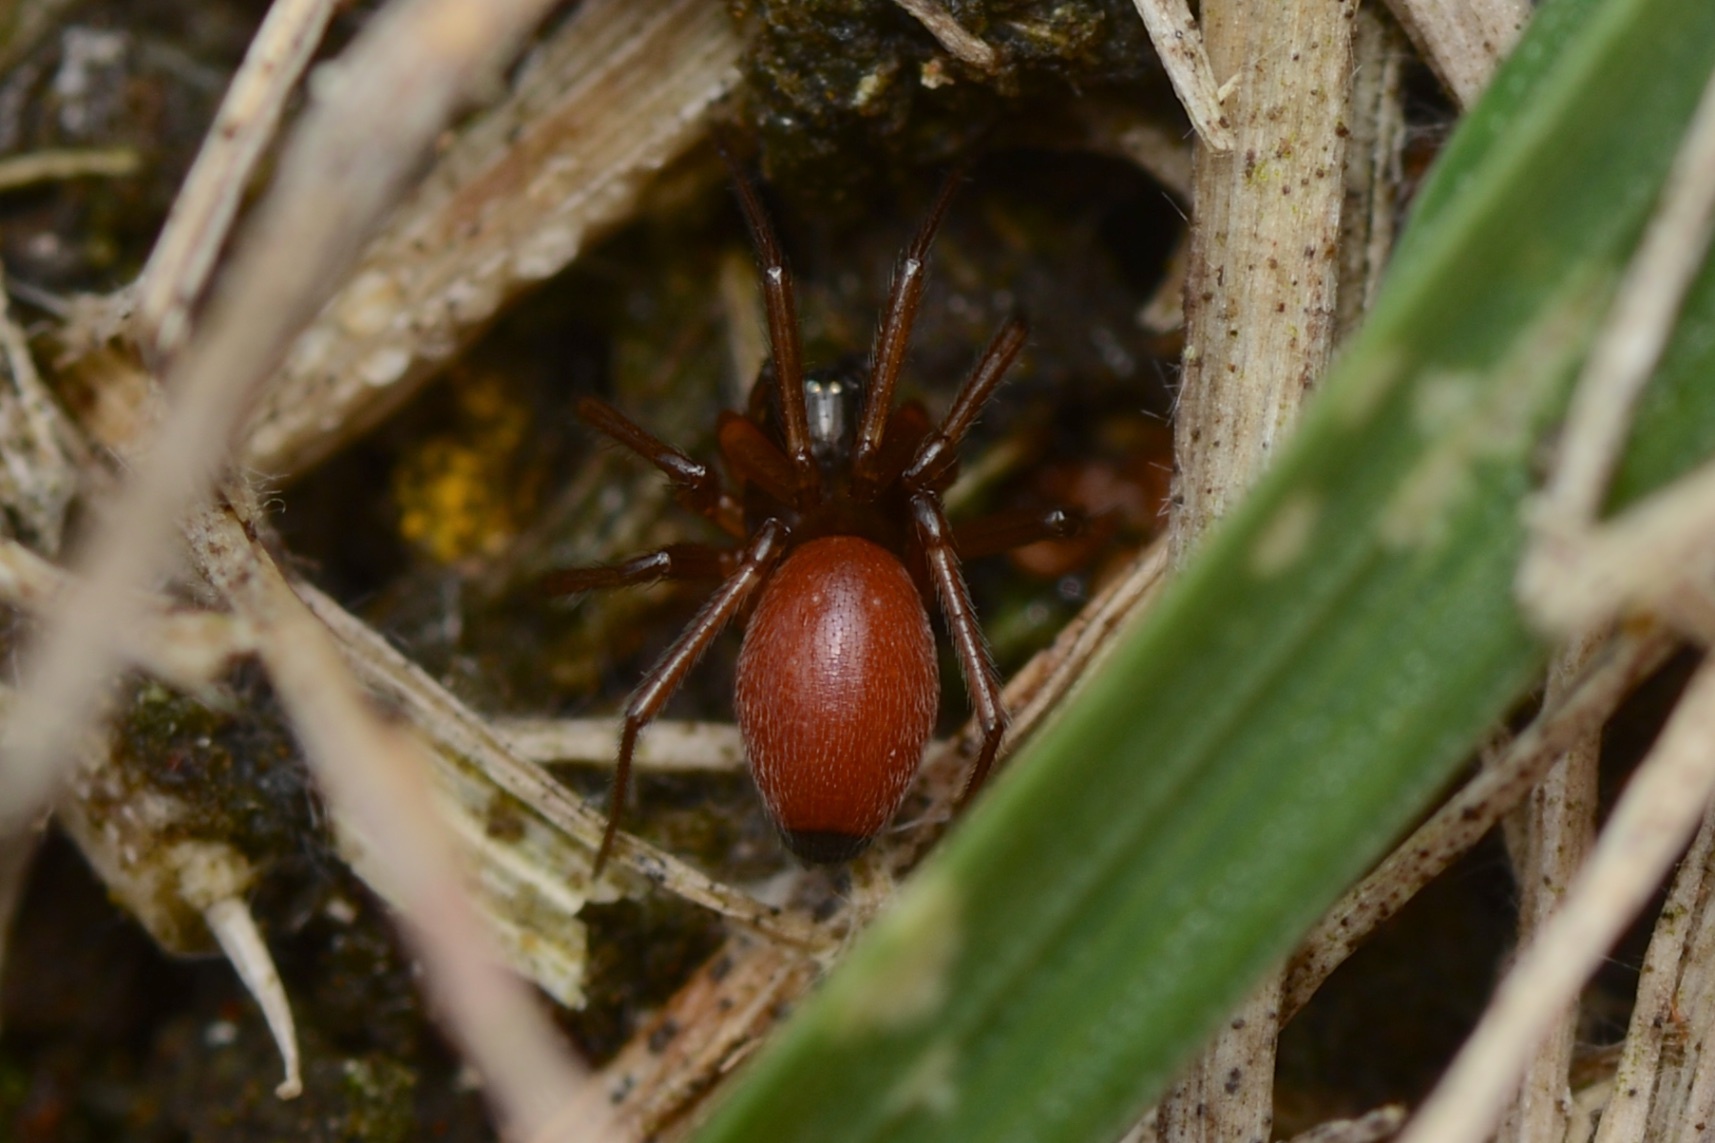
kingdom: Animalia
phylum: Arthropoda
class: Arachnida
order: Araneae
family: Linyphiidae
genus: Ostearius
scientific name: Ostearius melanopygius
